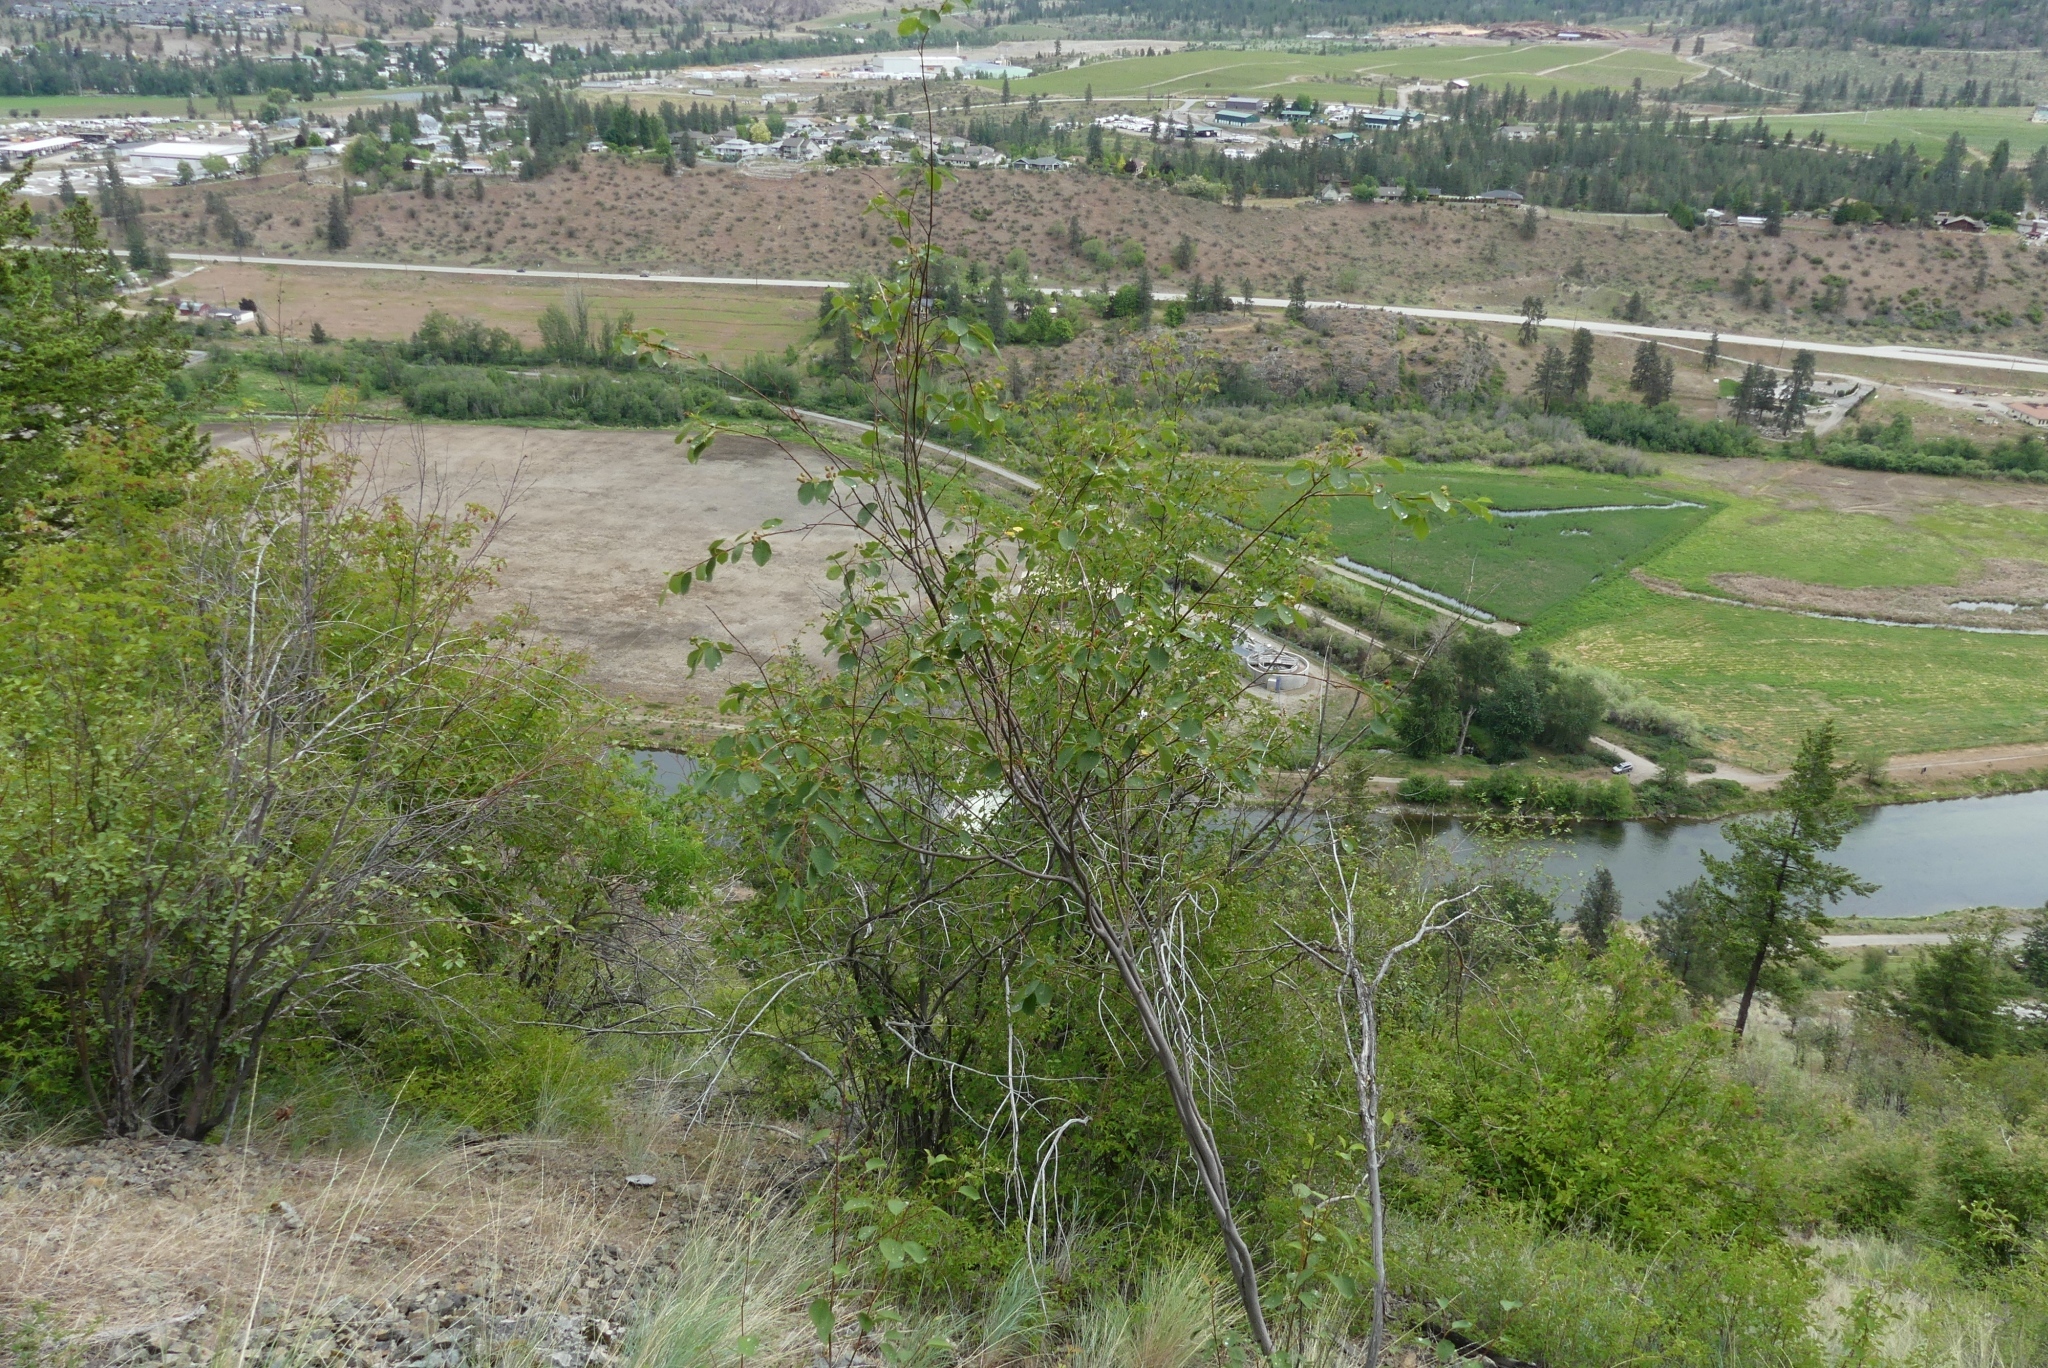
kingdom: Plantae
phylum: Tracheophyta
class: Magnoliopsida
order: Rosales
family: Rosaceae
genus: Amelanchier
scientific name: Amelanchier alnifolia
